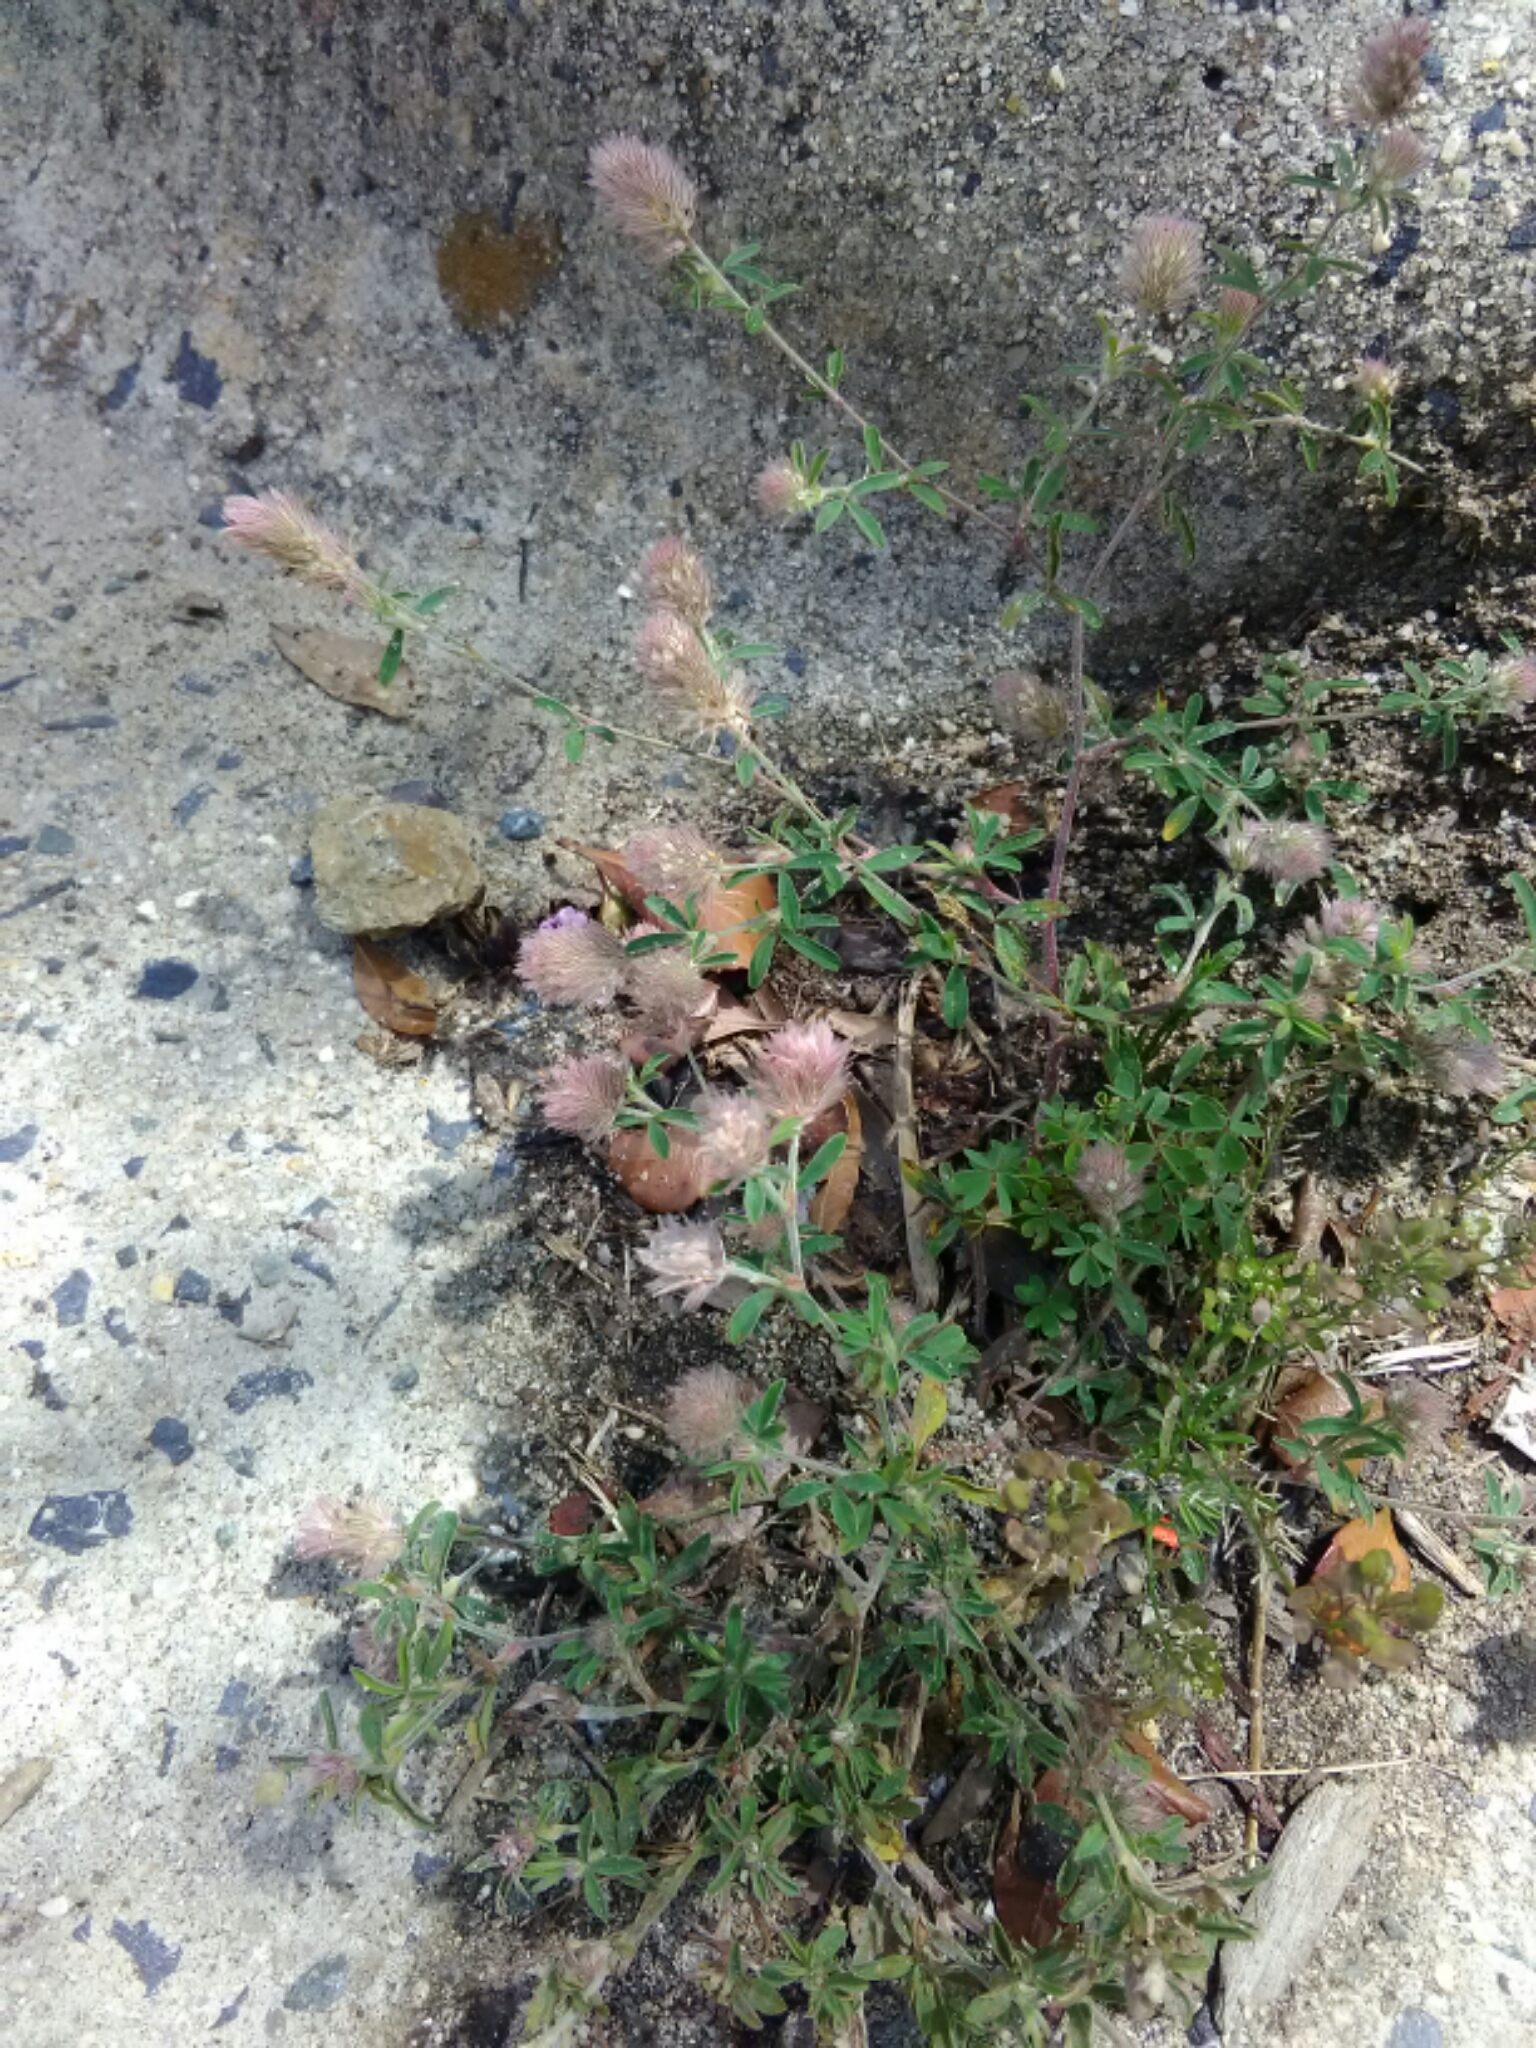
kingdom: Plantae
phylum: Tracheophyta
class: Magnoliopsida
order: Fabales
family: Fabaceae
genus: Trifolium
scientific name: Trifolium arvense
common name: Hare's-foot clover
